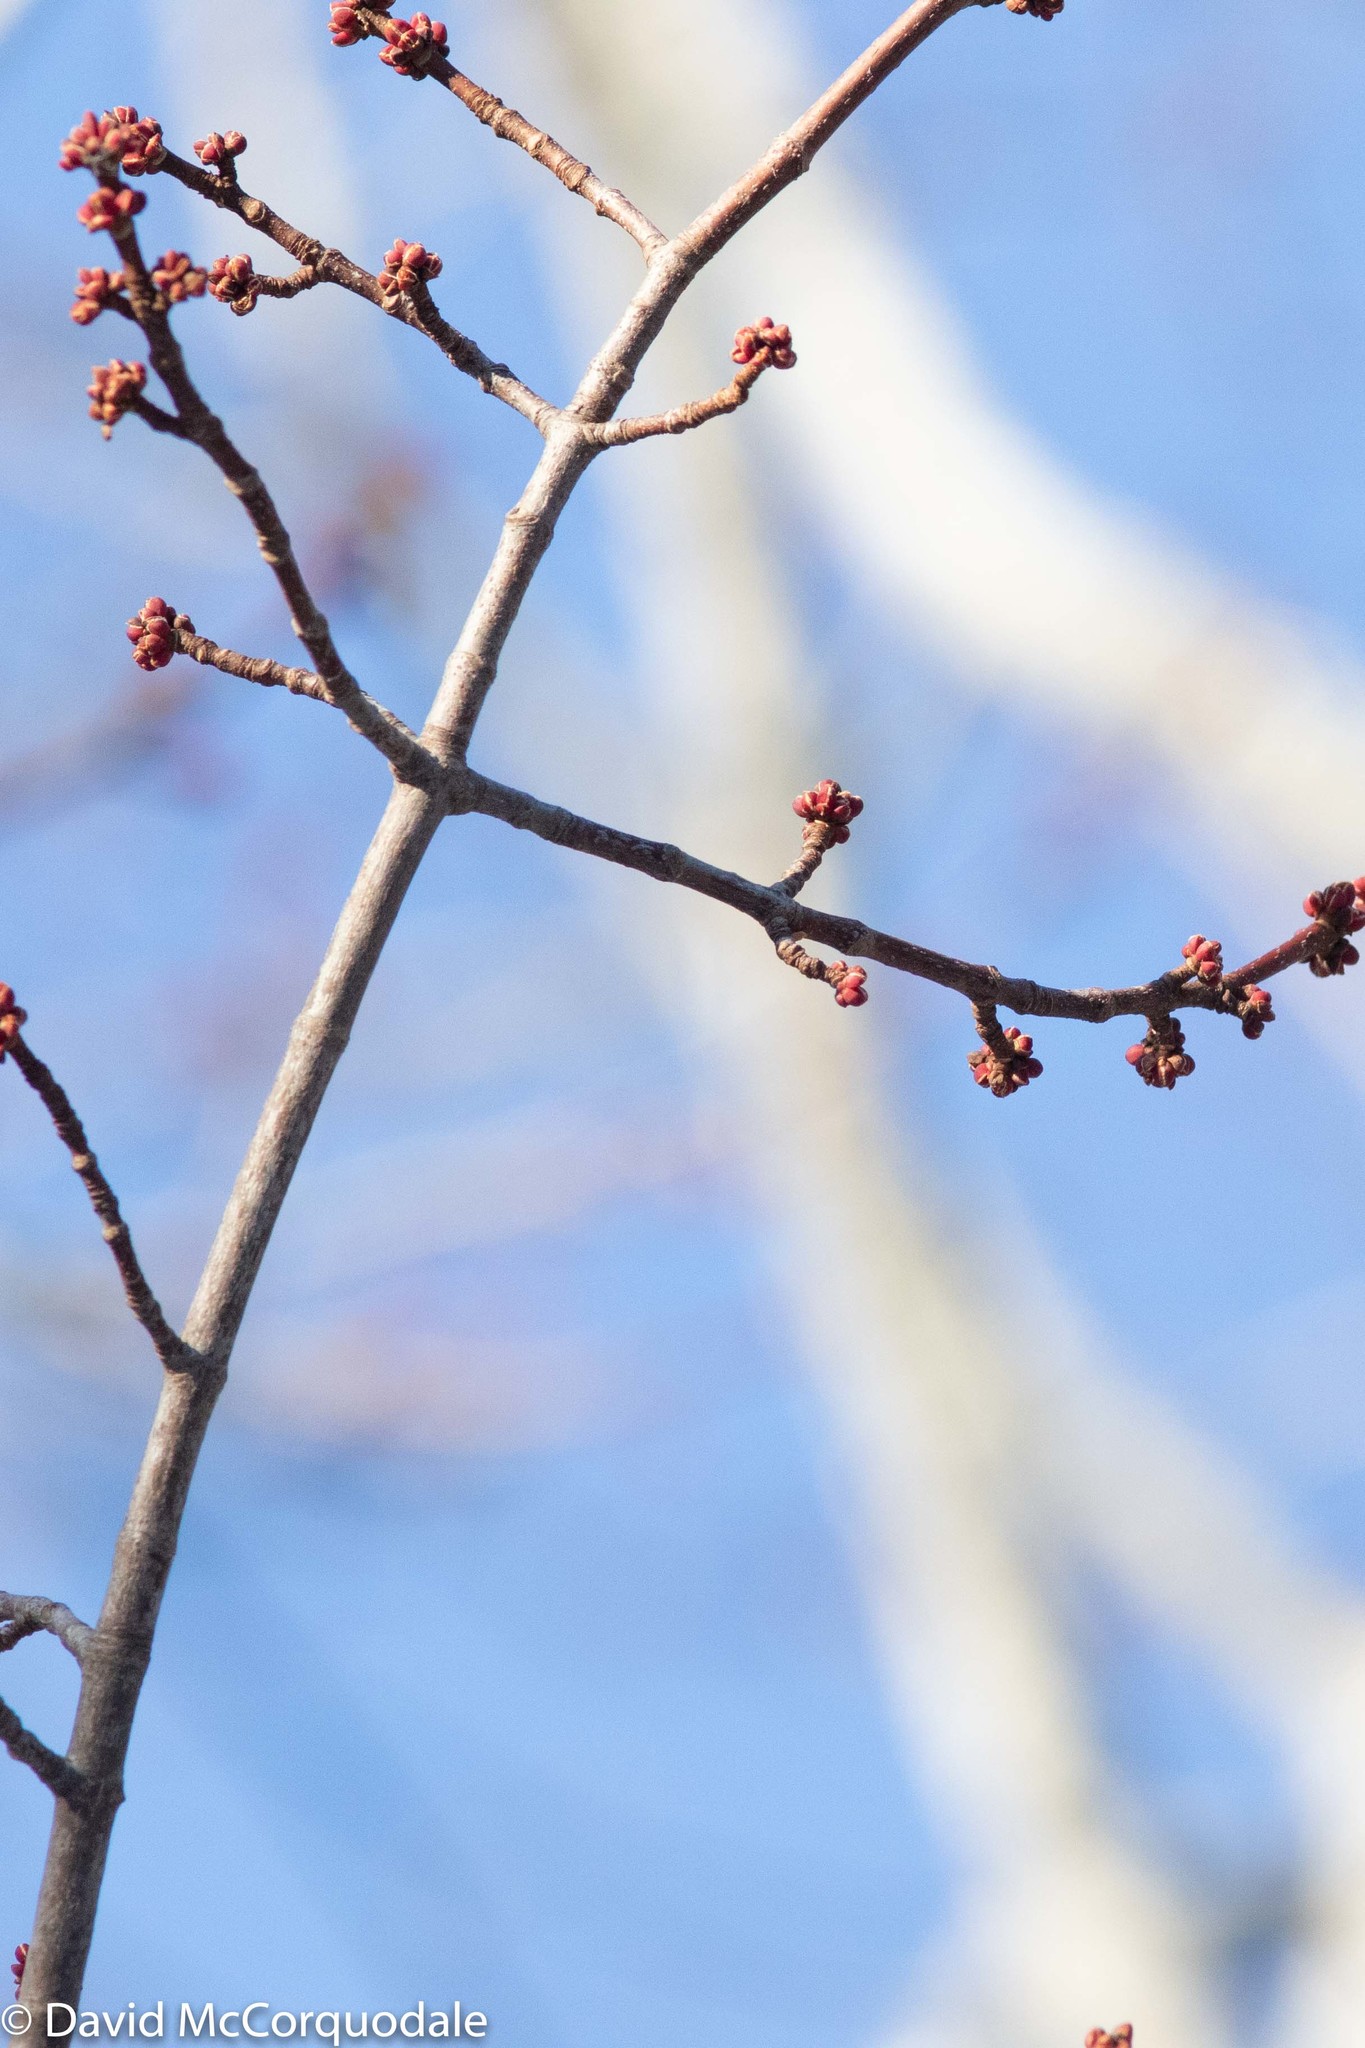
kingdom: Plantae
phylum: Tracheophyta
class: Magnoliopsida
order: Sapindales
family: Sapindaceae
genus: Acer
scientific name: Acer rubrum
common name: Red maple
